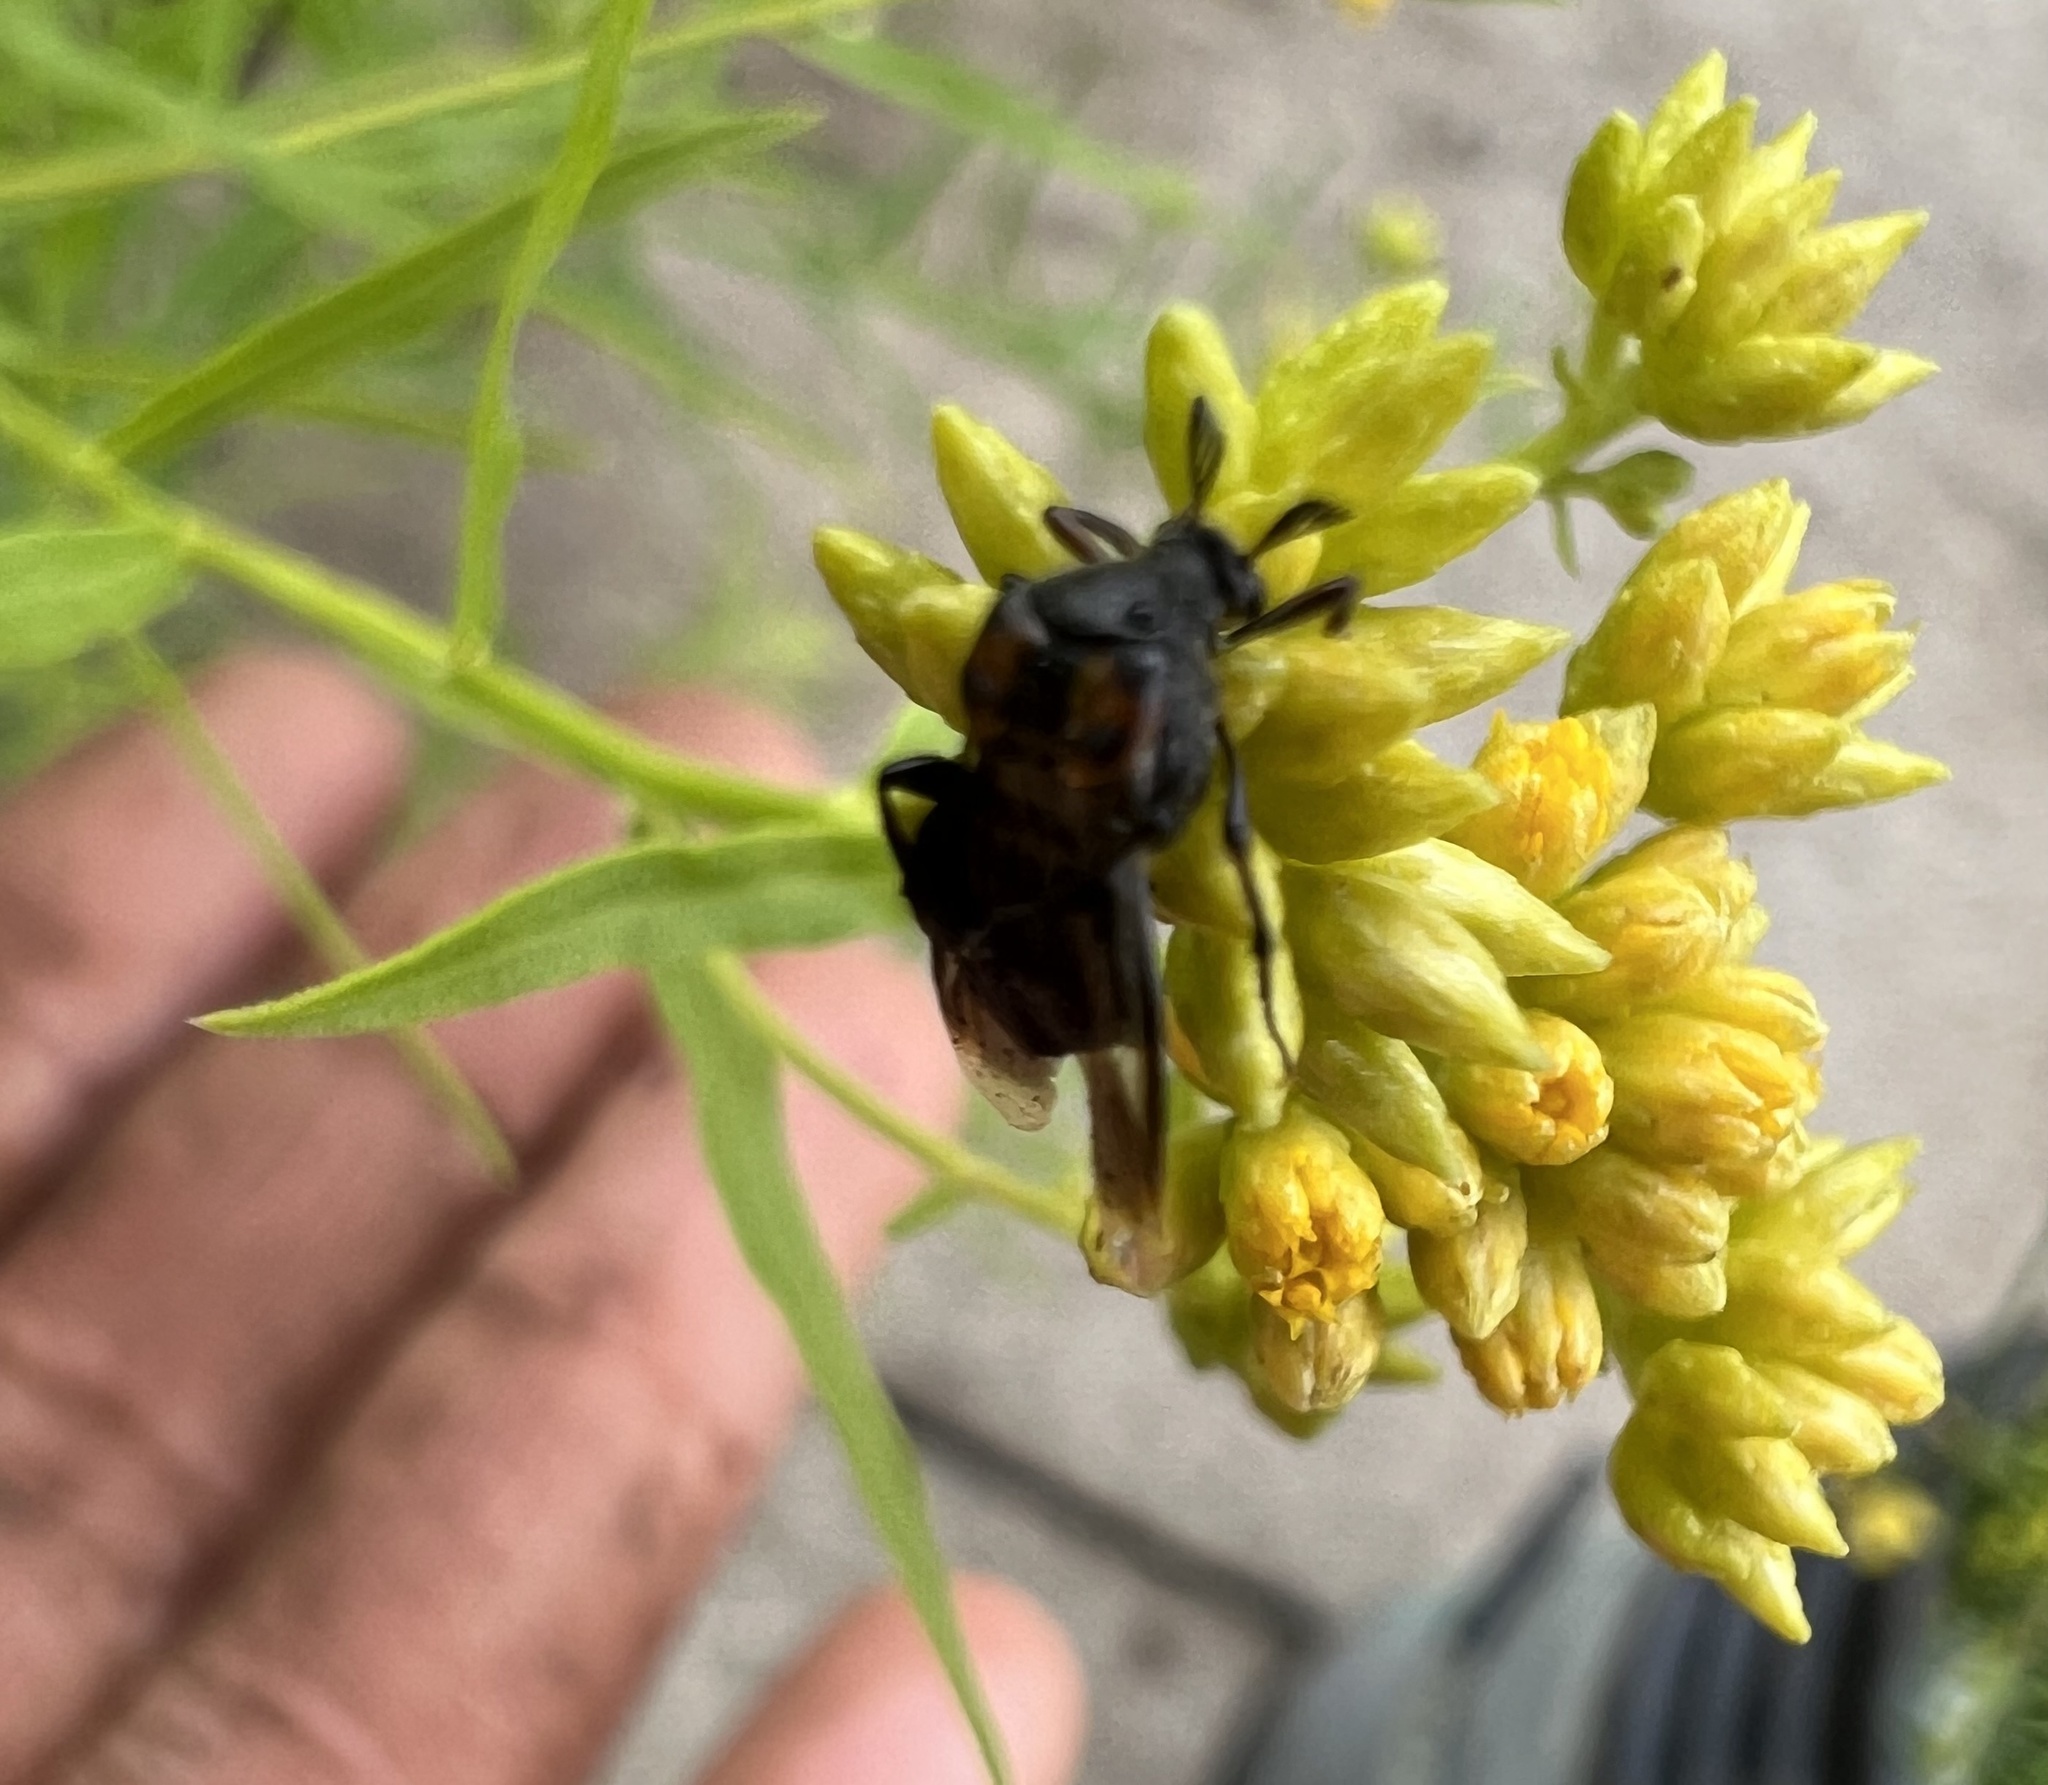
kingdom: Plantae
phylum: Tracheophyta
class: Magnoliopsida
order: Asterales
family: Asteraceae
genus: Euthamia
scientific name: Euthamia graminifolia
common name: Common goldentop
